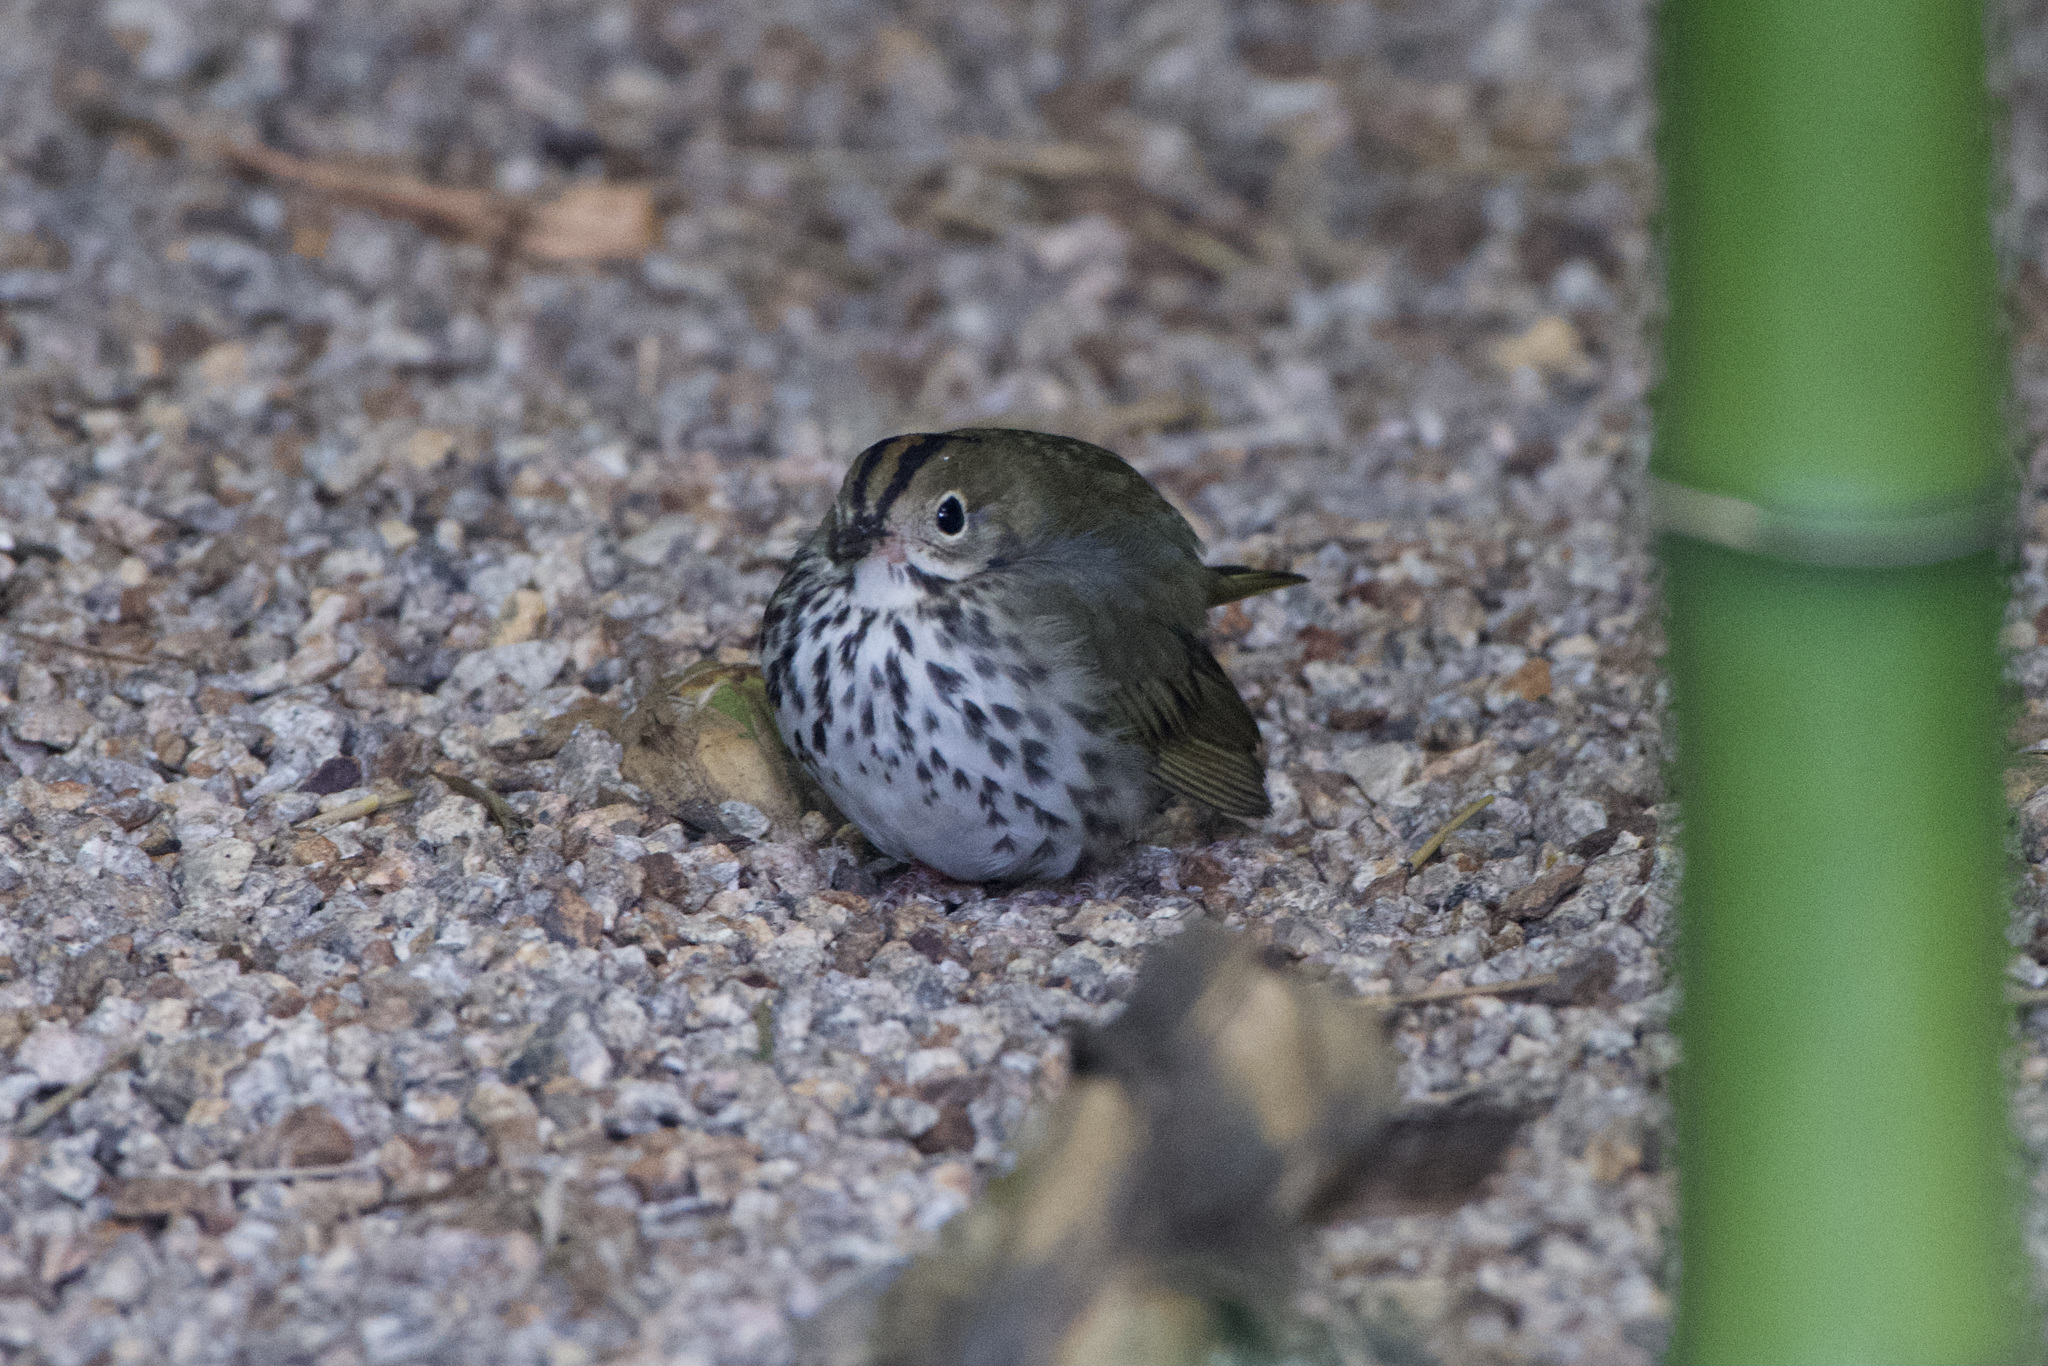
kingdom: Animalia
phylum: Chordata
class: Aves
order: Passeriformes
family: Parulidae
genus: Seiurus
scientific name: Seiurus aurocapilla
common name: Ovenbird
